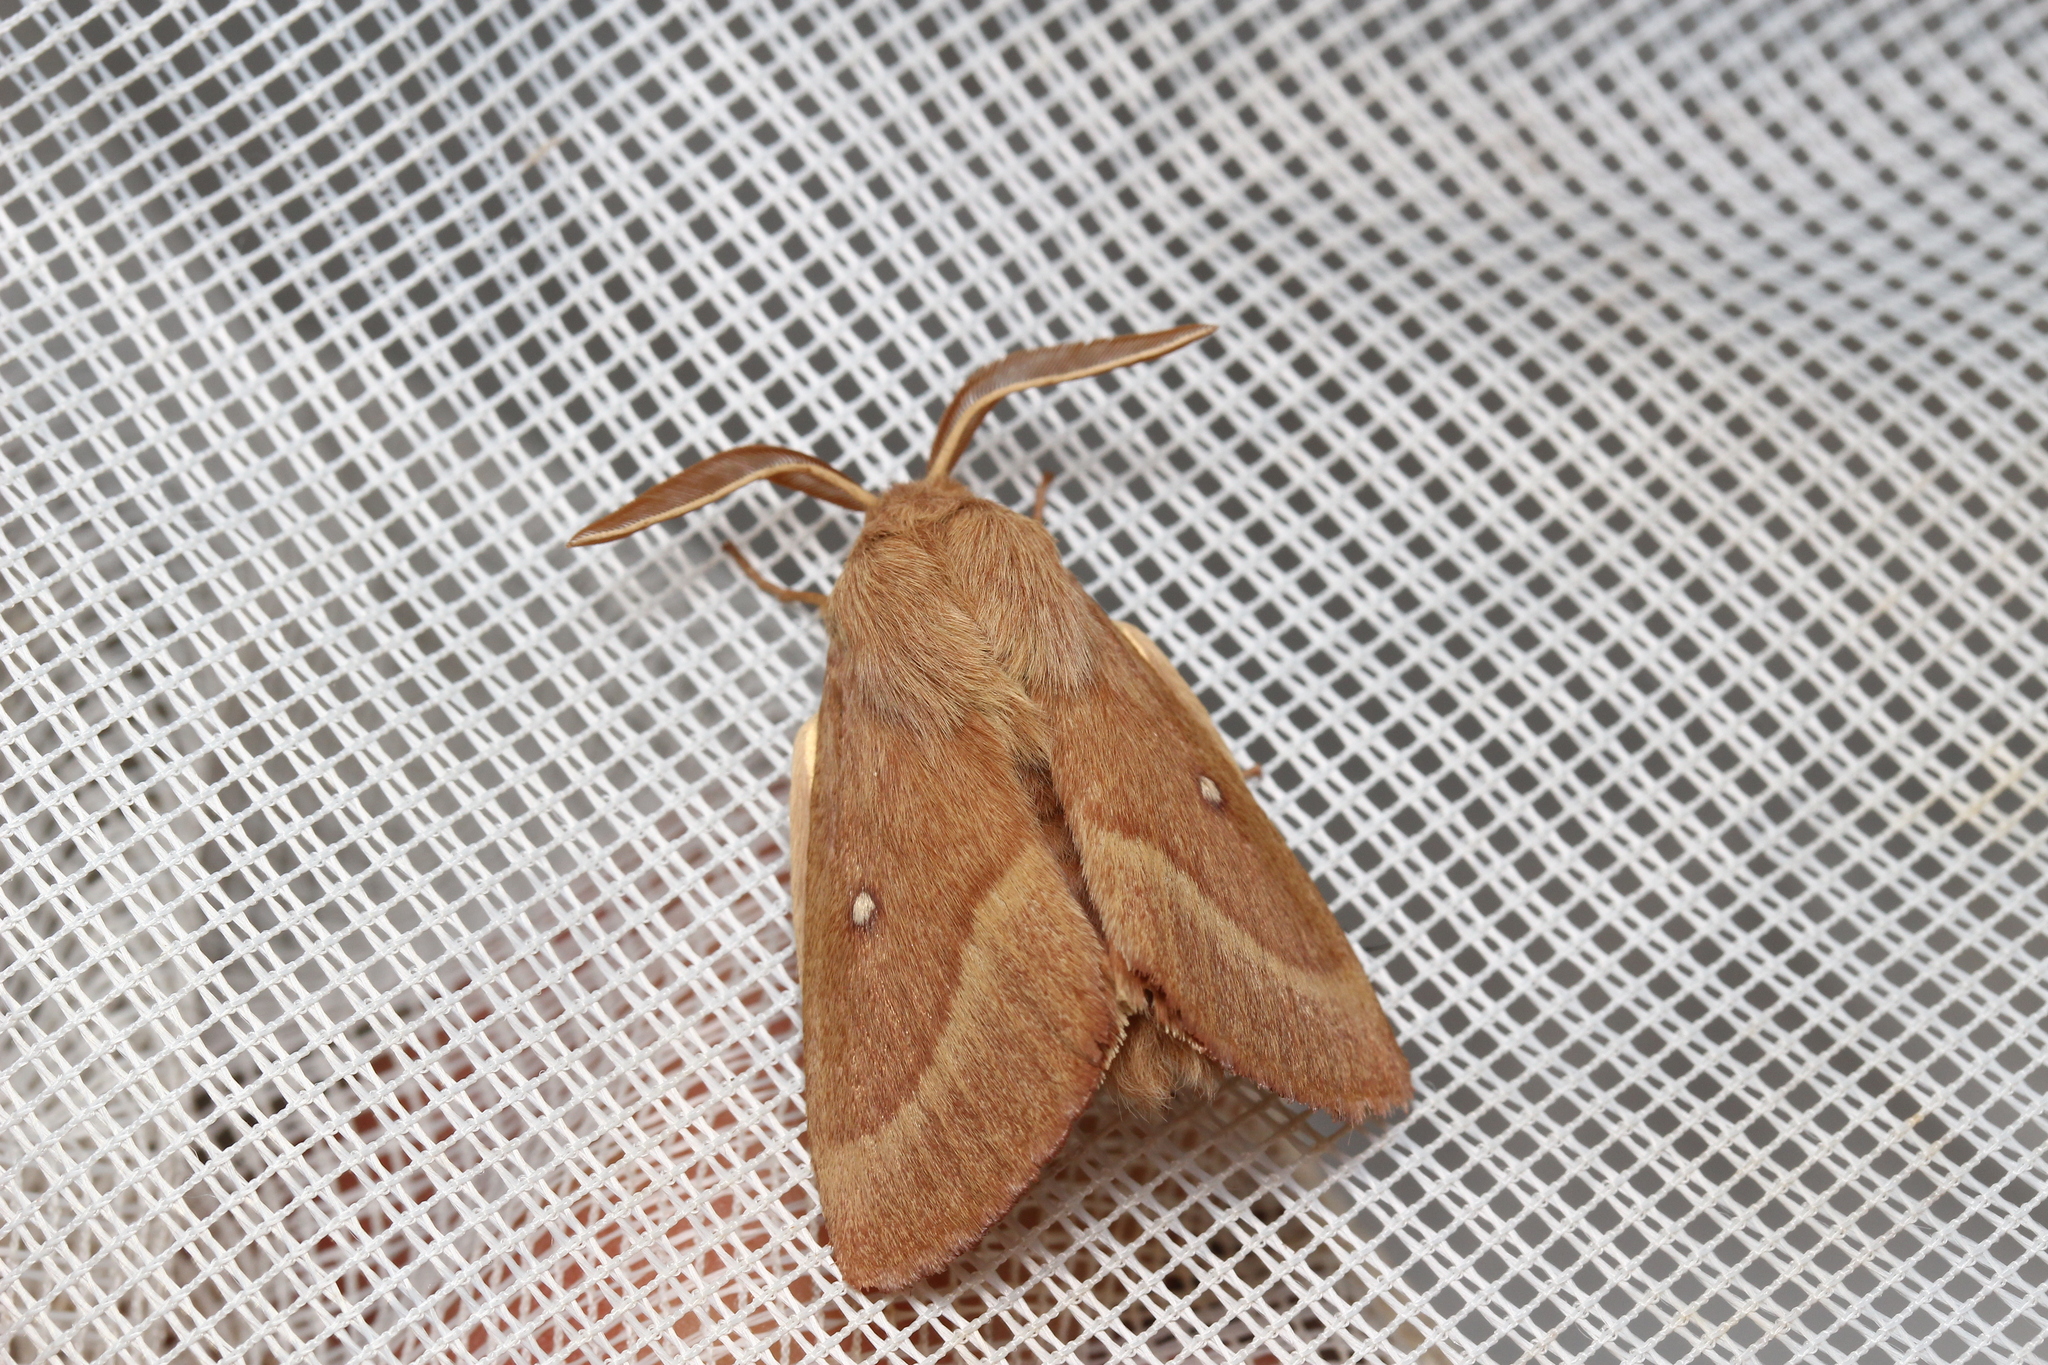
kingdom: Animalia
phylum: Arthropoda
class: Insecta
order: Lepidoptera
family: Lasiocampidae
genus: Lasiocampa
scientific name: Lasiocampa trifolii
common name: Grass eggar
